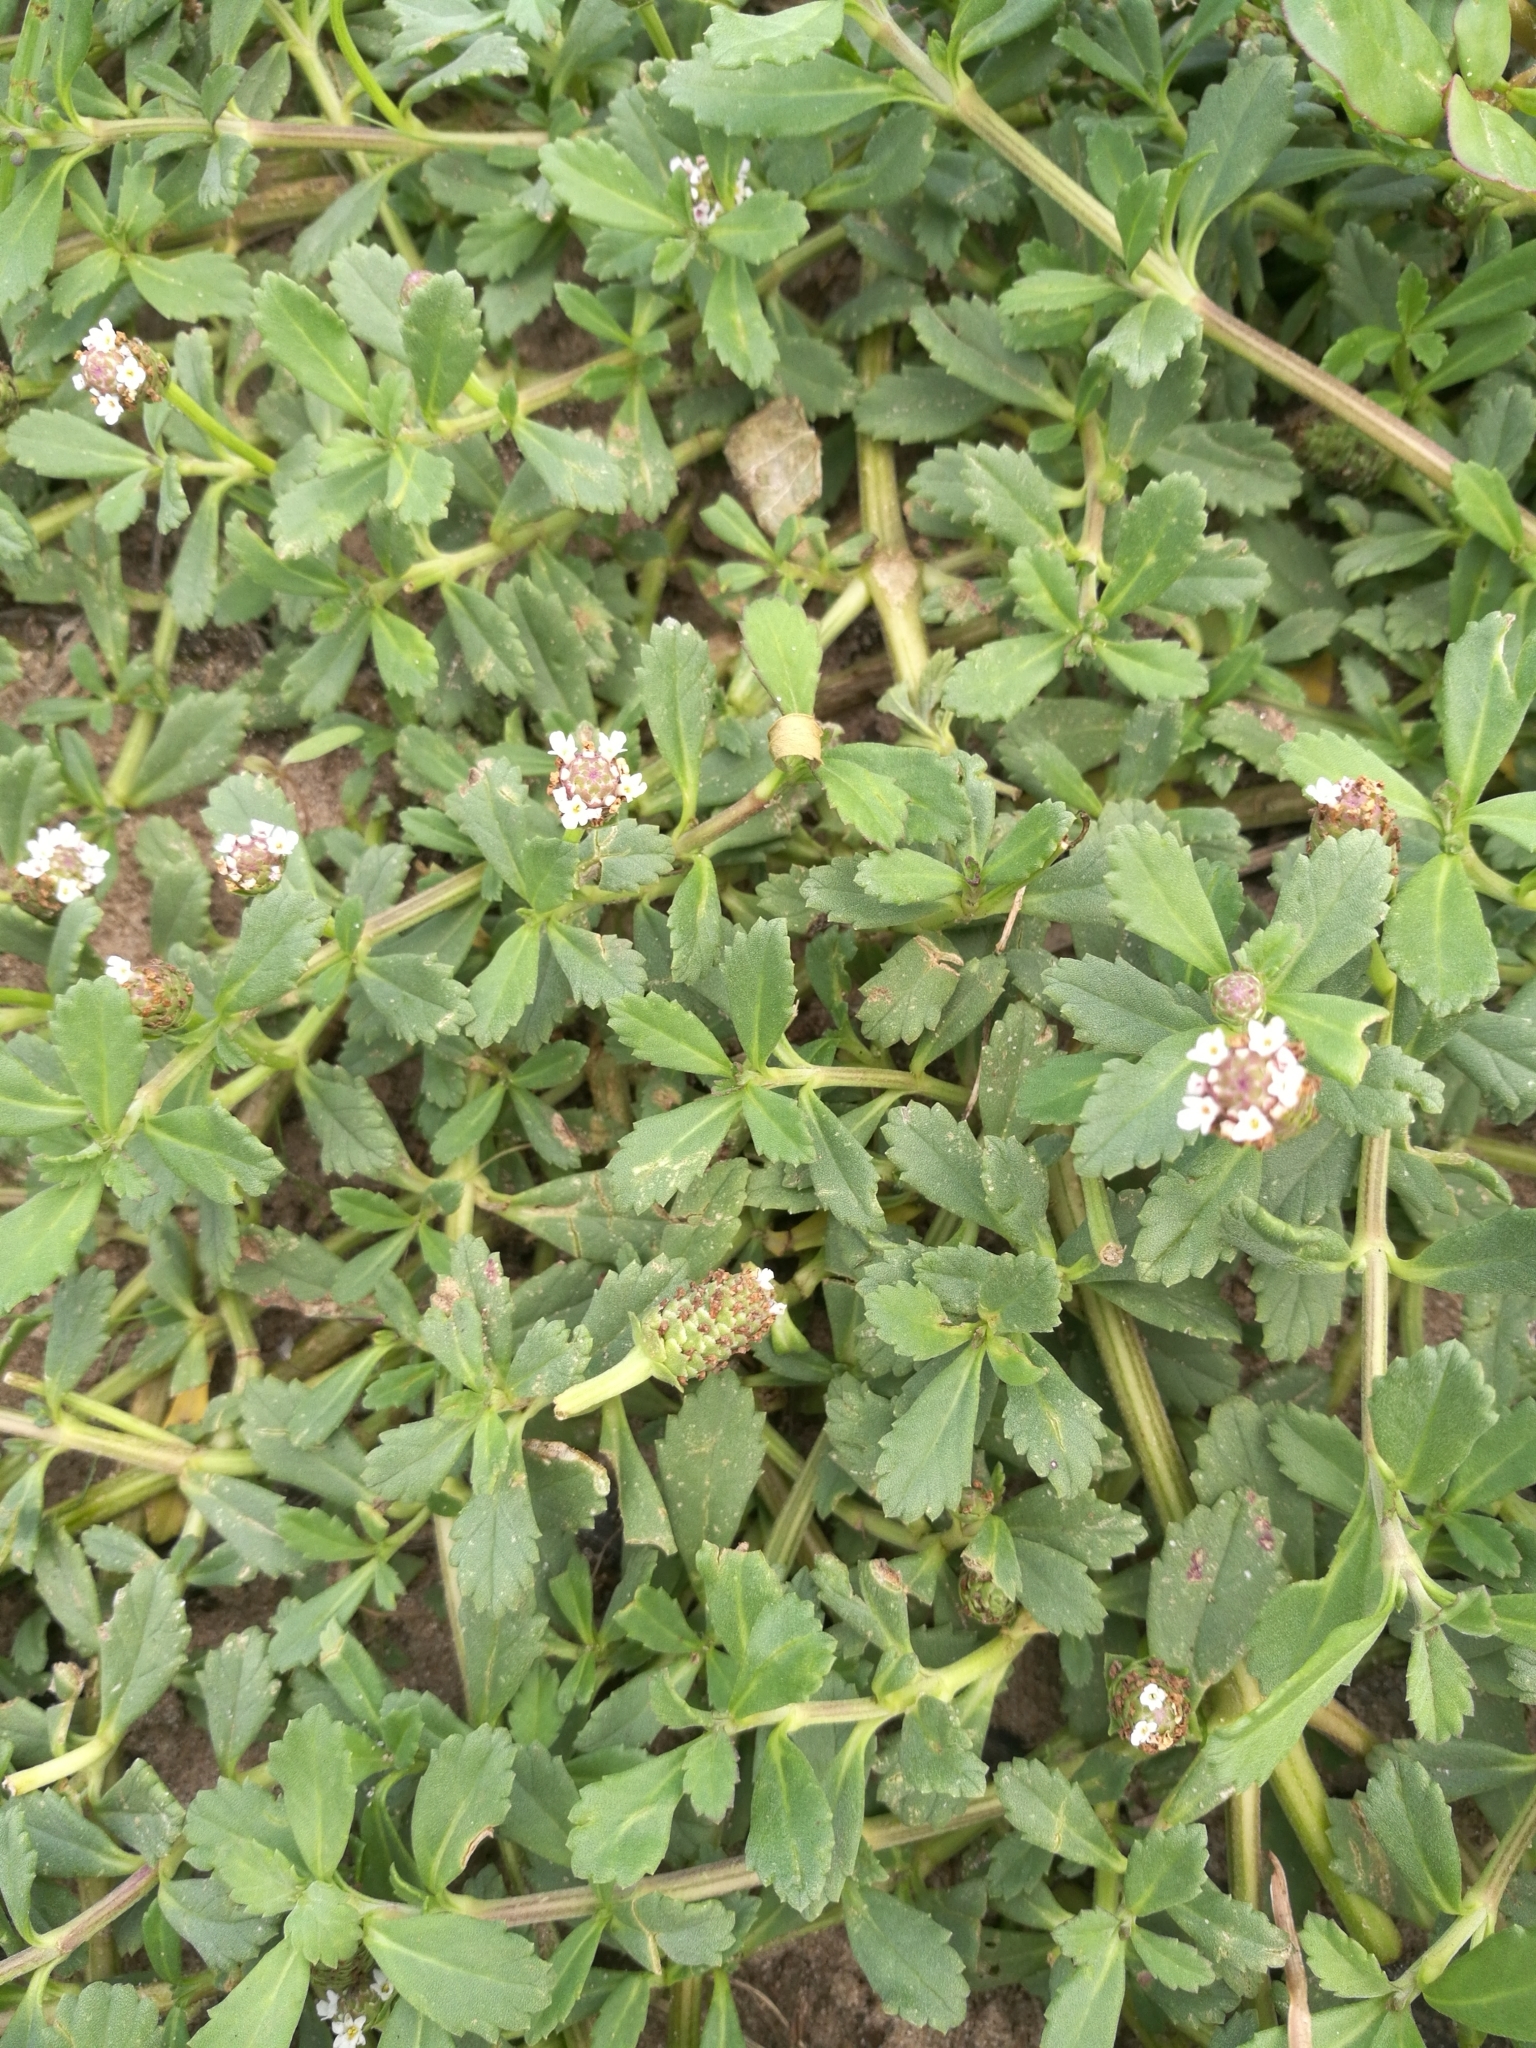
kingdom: Plantae
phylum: Tracheophyta
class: Magnoliopsida
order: Lamiales
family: Verbenaceae
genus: Phyla
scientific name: Phyla nodiflora
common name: Frogfruit
